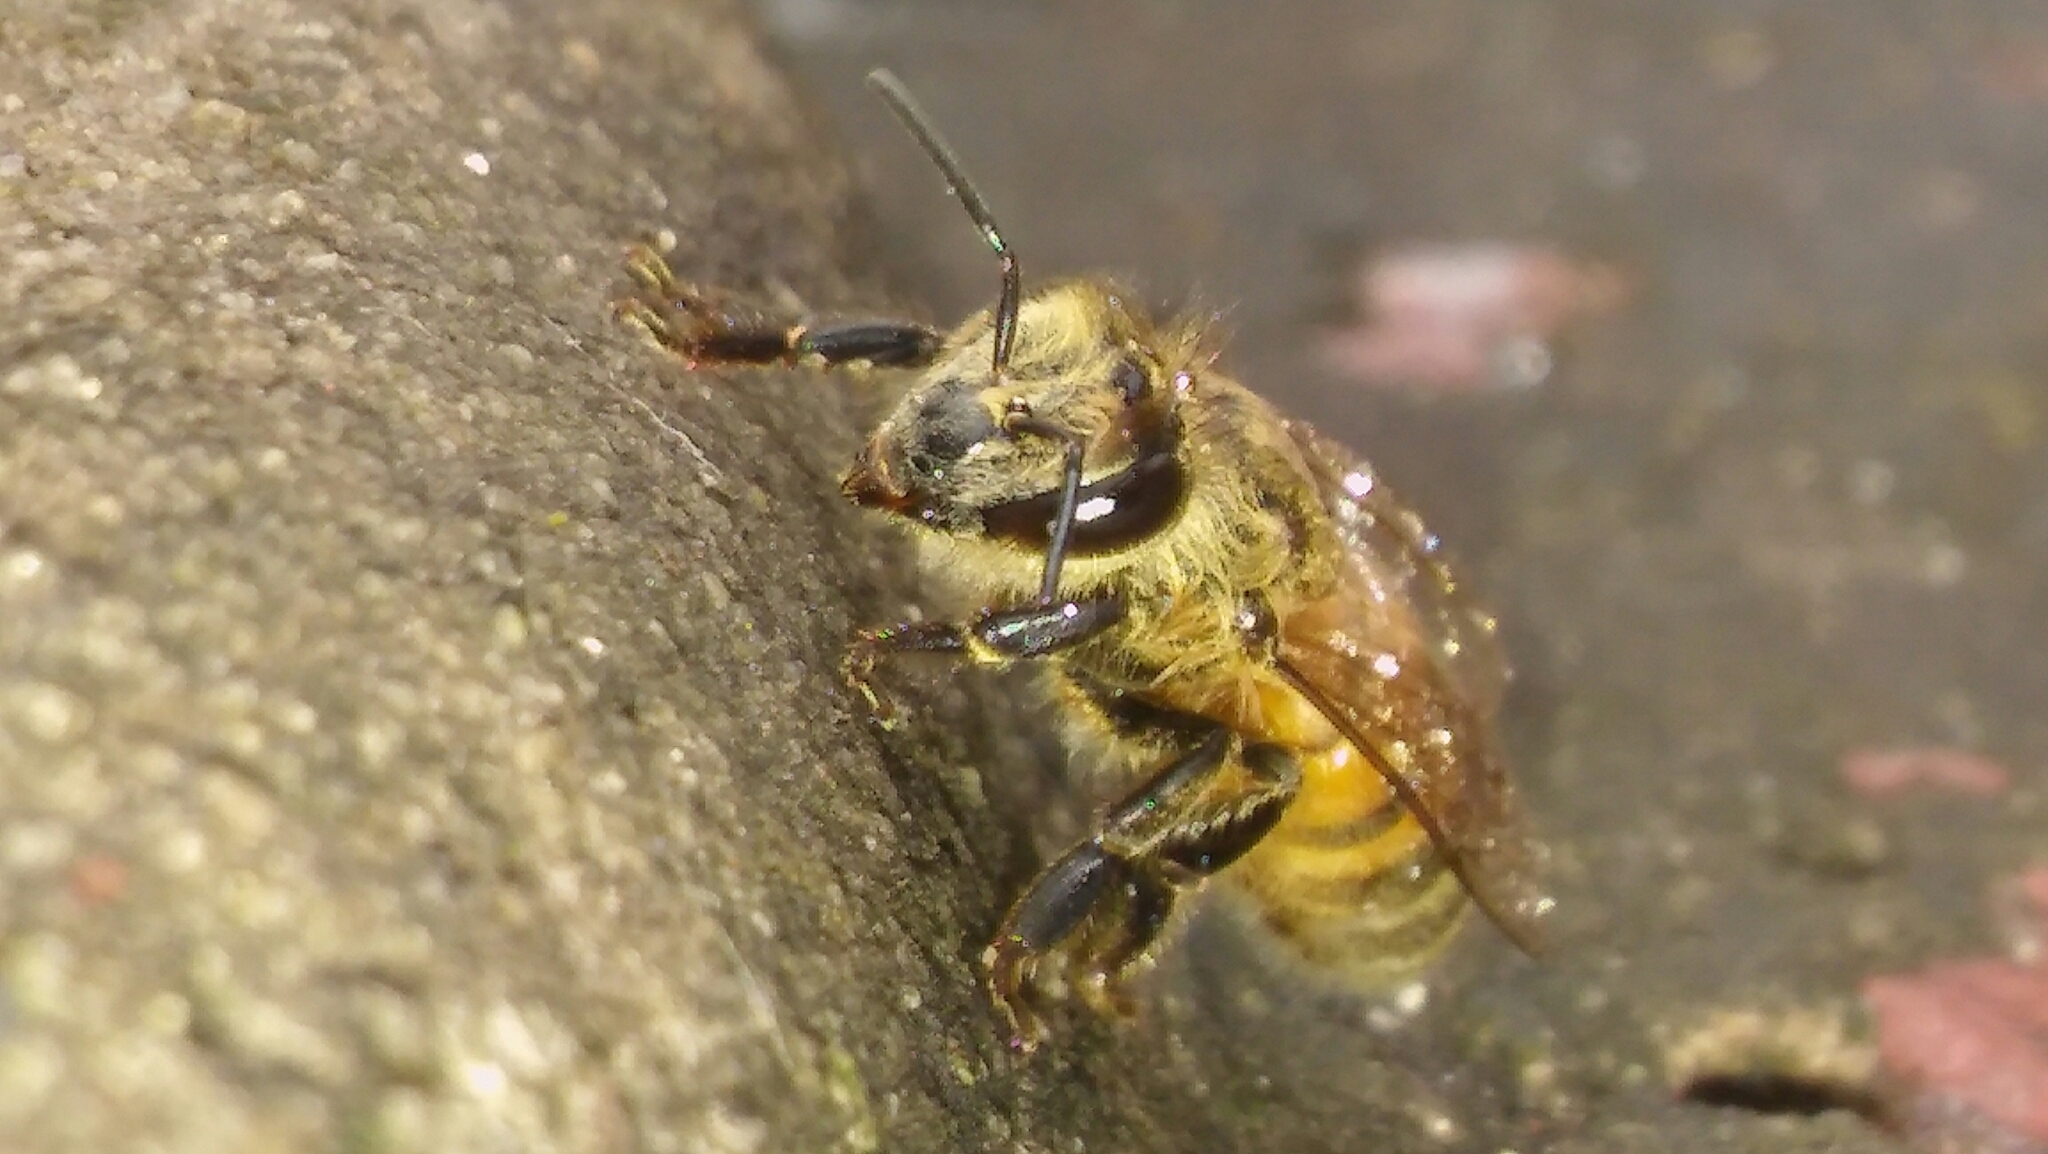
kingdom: Animalia
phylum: Arthropoda
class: Insecta
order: Hymenoptera
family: Apidae
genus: Apis
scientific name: Apis mellifera
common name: Honey bee
